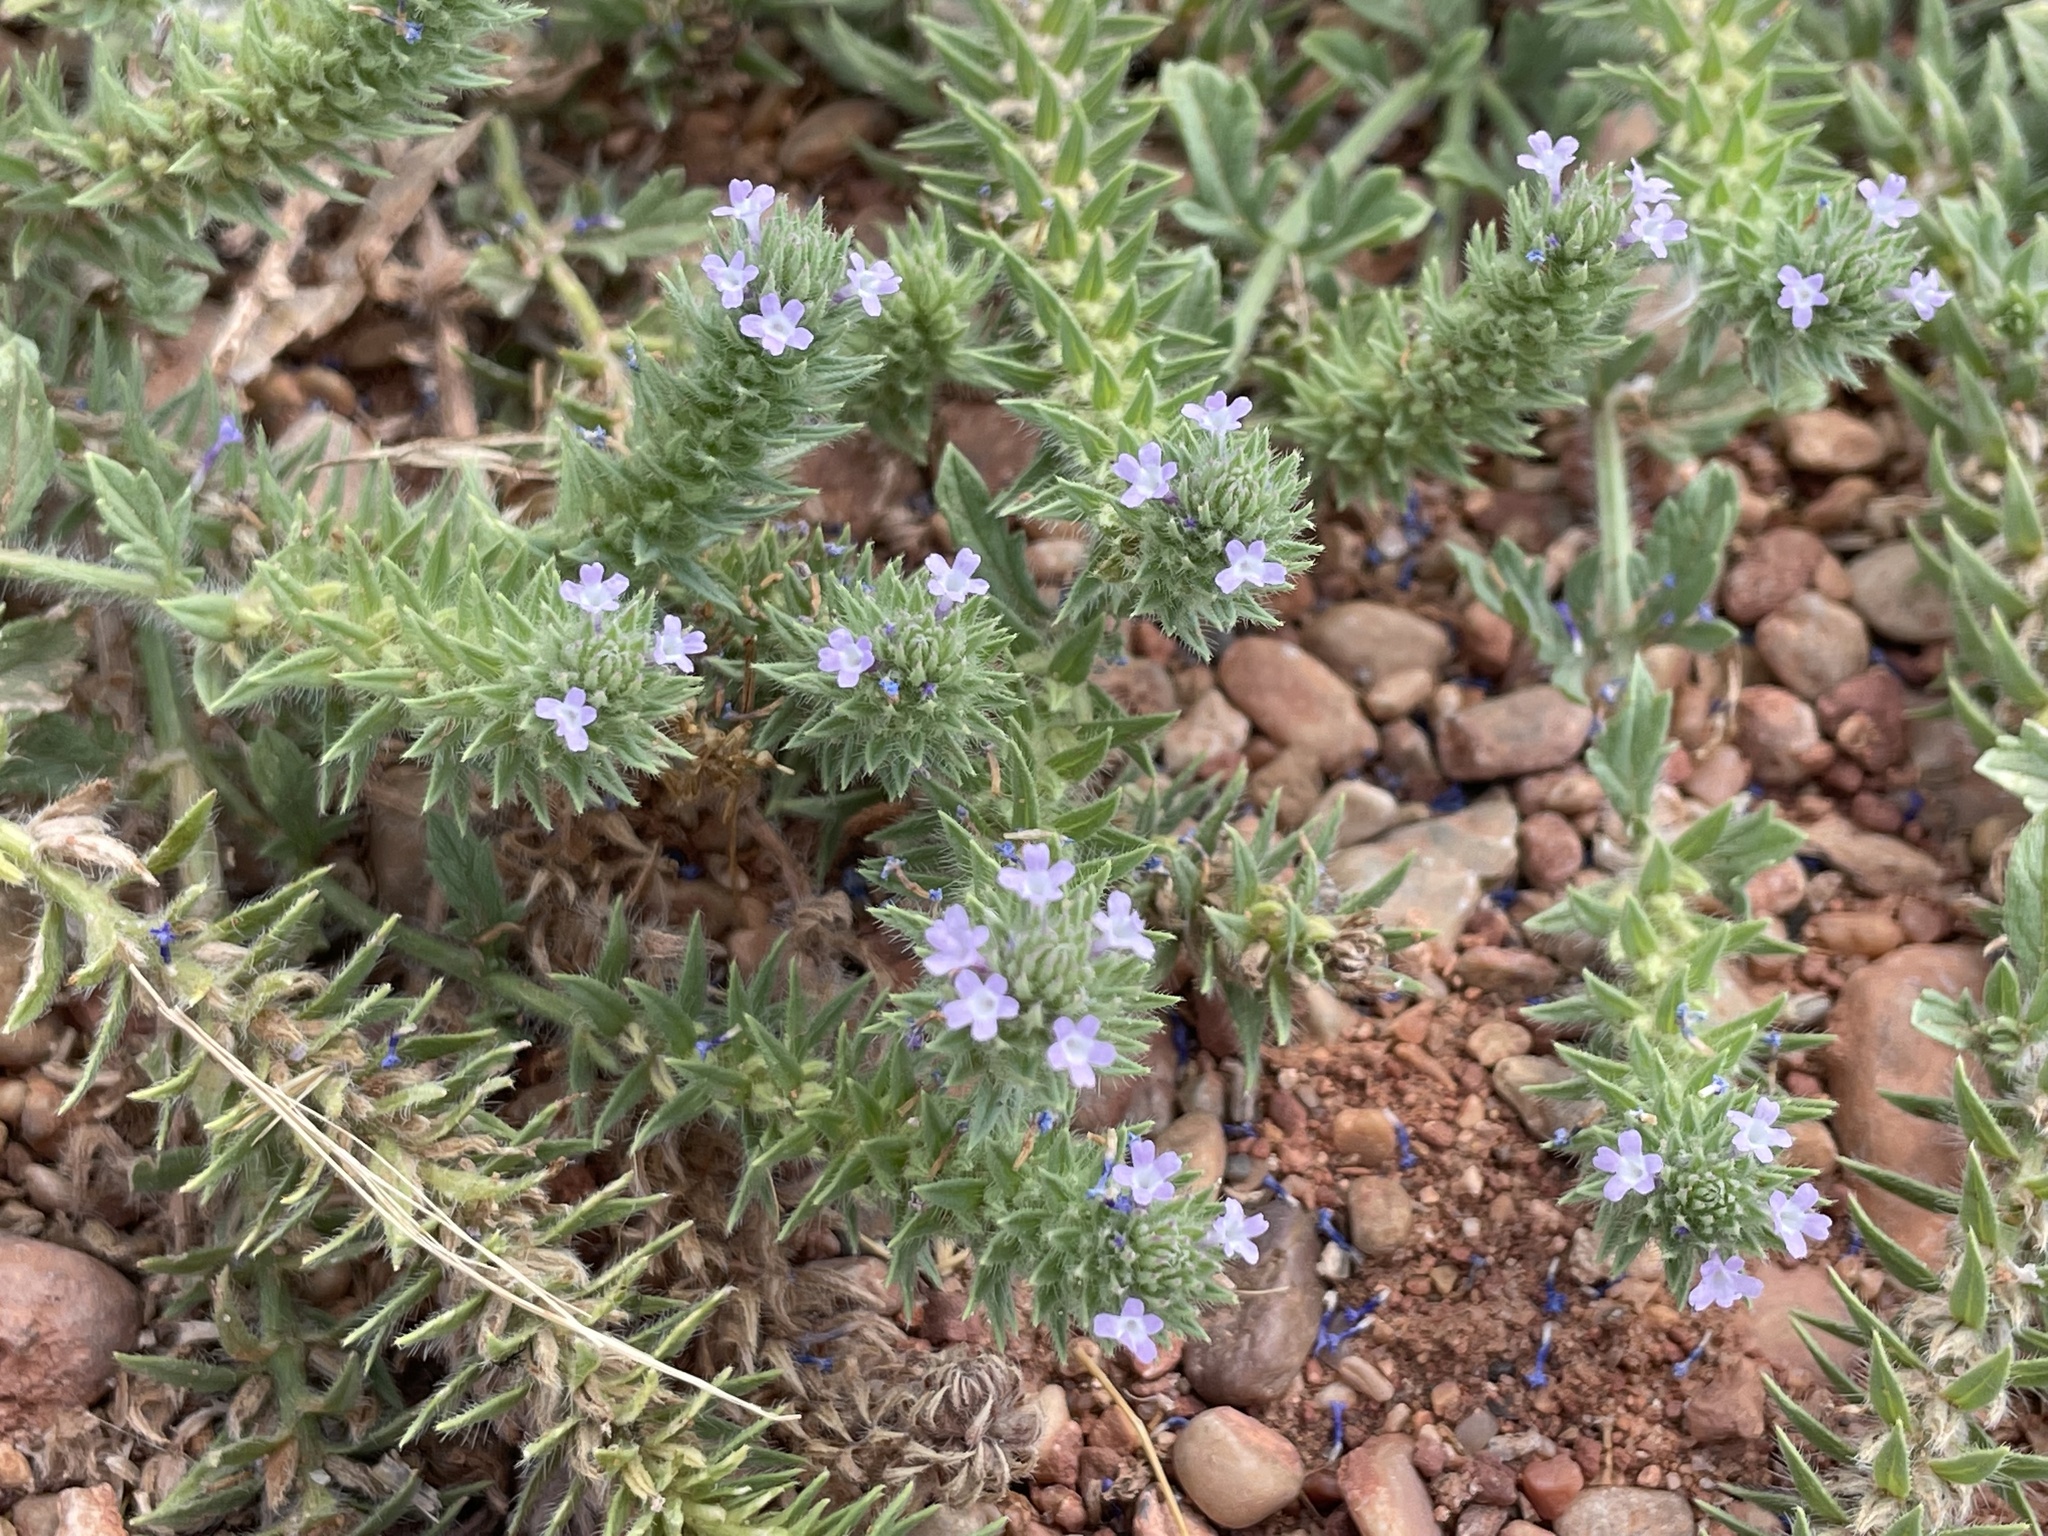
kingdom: Plantae
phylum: Tracheophyta
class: Magnoliopsida
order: Lamiales
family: Verbenaceae
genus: Verbena
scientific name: Verbena bracteata
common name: Bracted vervain
